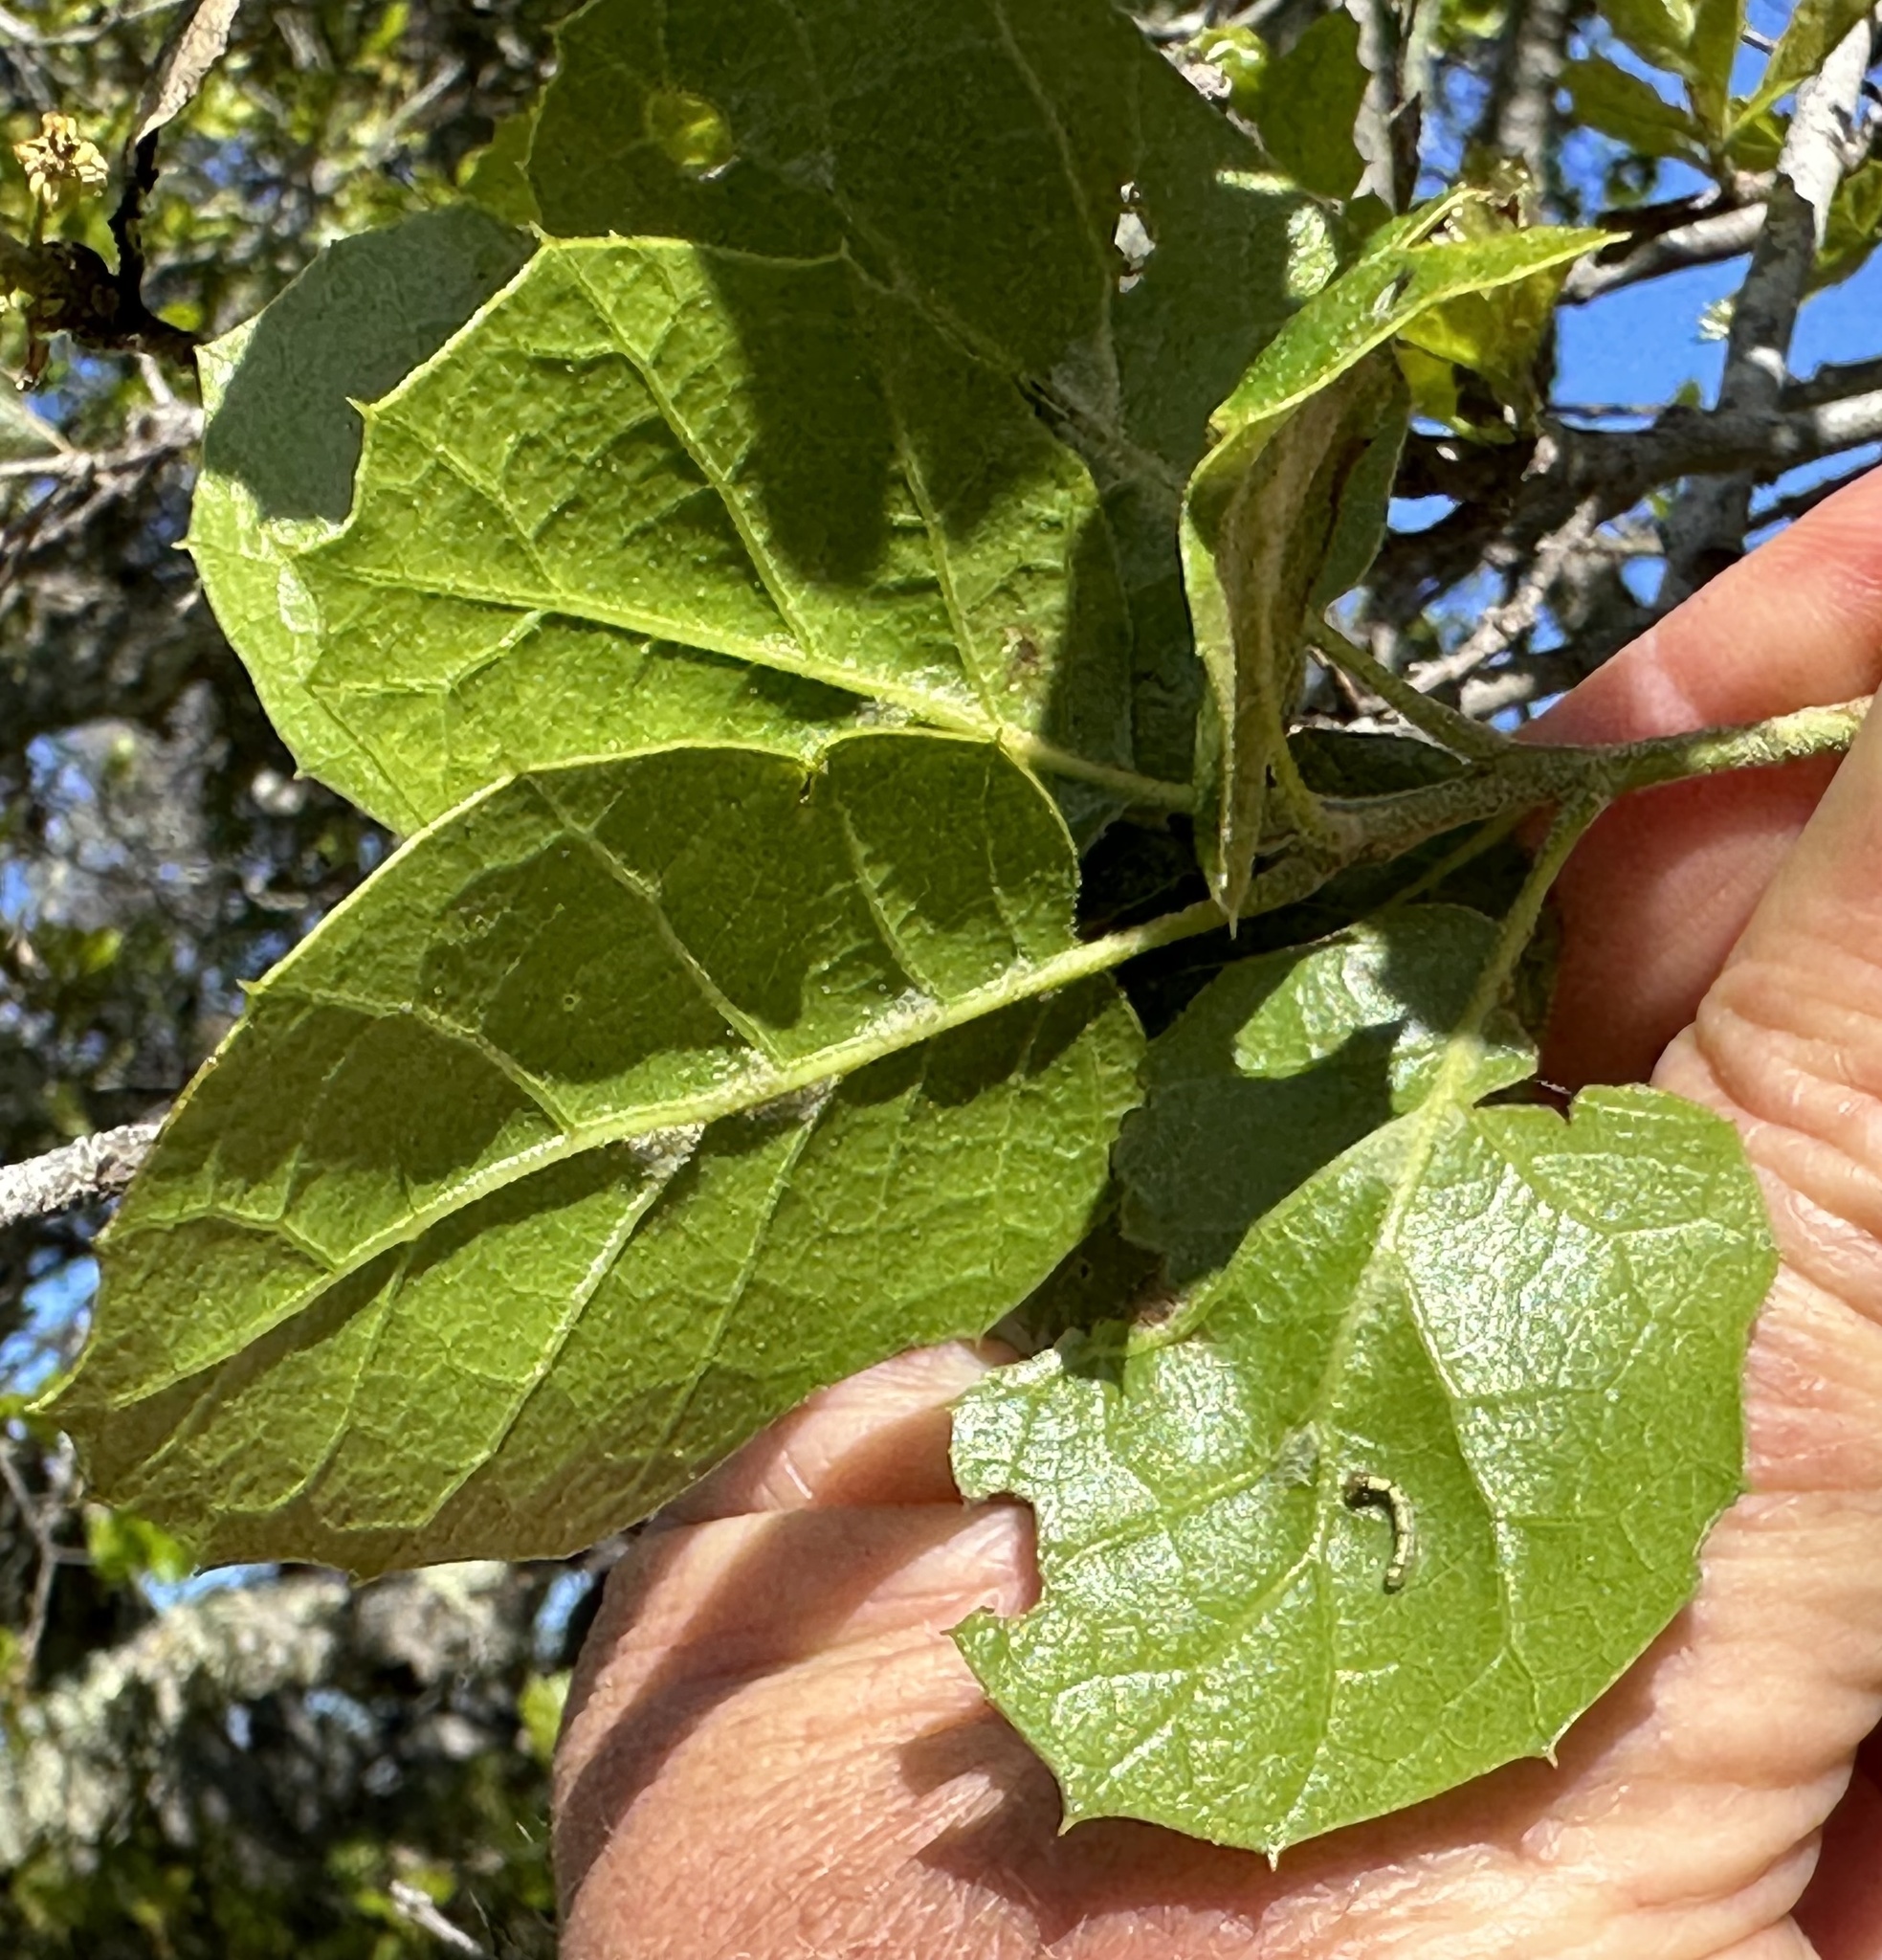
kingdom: Plantae
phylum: Tracheophyta
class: Magnoliopsida
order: Fagales
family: Fagaceae
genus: Quercus
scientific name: Quercus agrifolia
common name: California live oak
